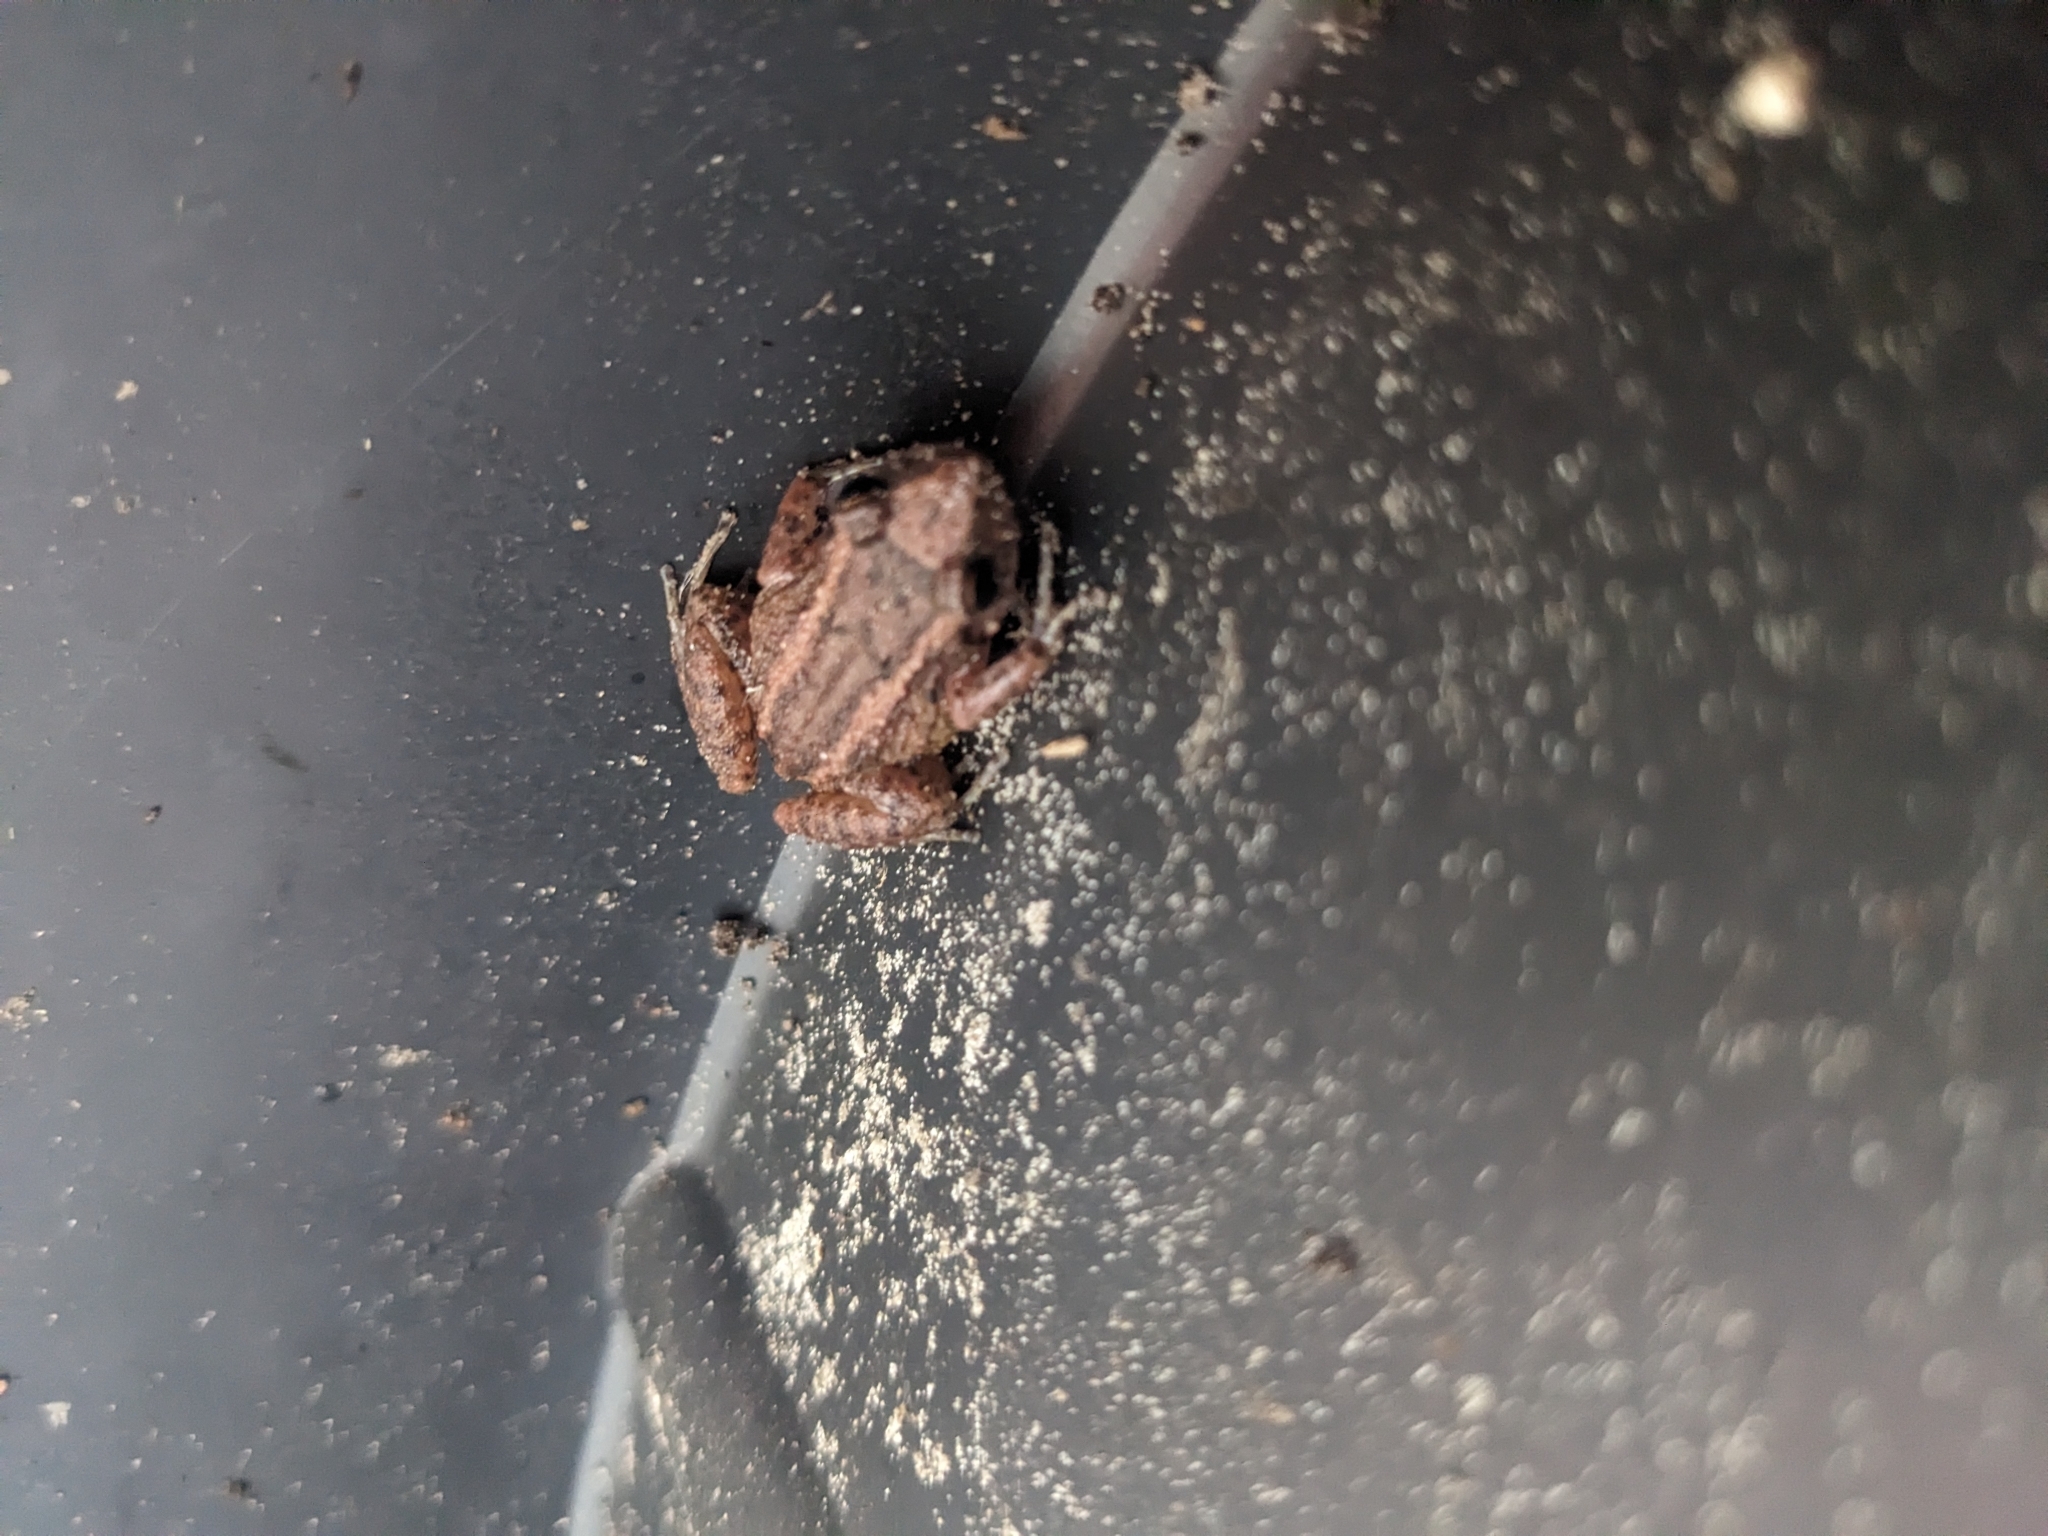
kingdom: Animalia
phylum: Chordata
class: Amphibia
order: Anura
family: Eleutherodactylidae
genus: Eleutherodactylus
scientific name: Eleutherodactylus planirostris
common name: Greenhouse frog
